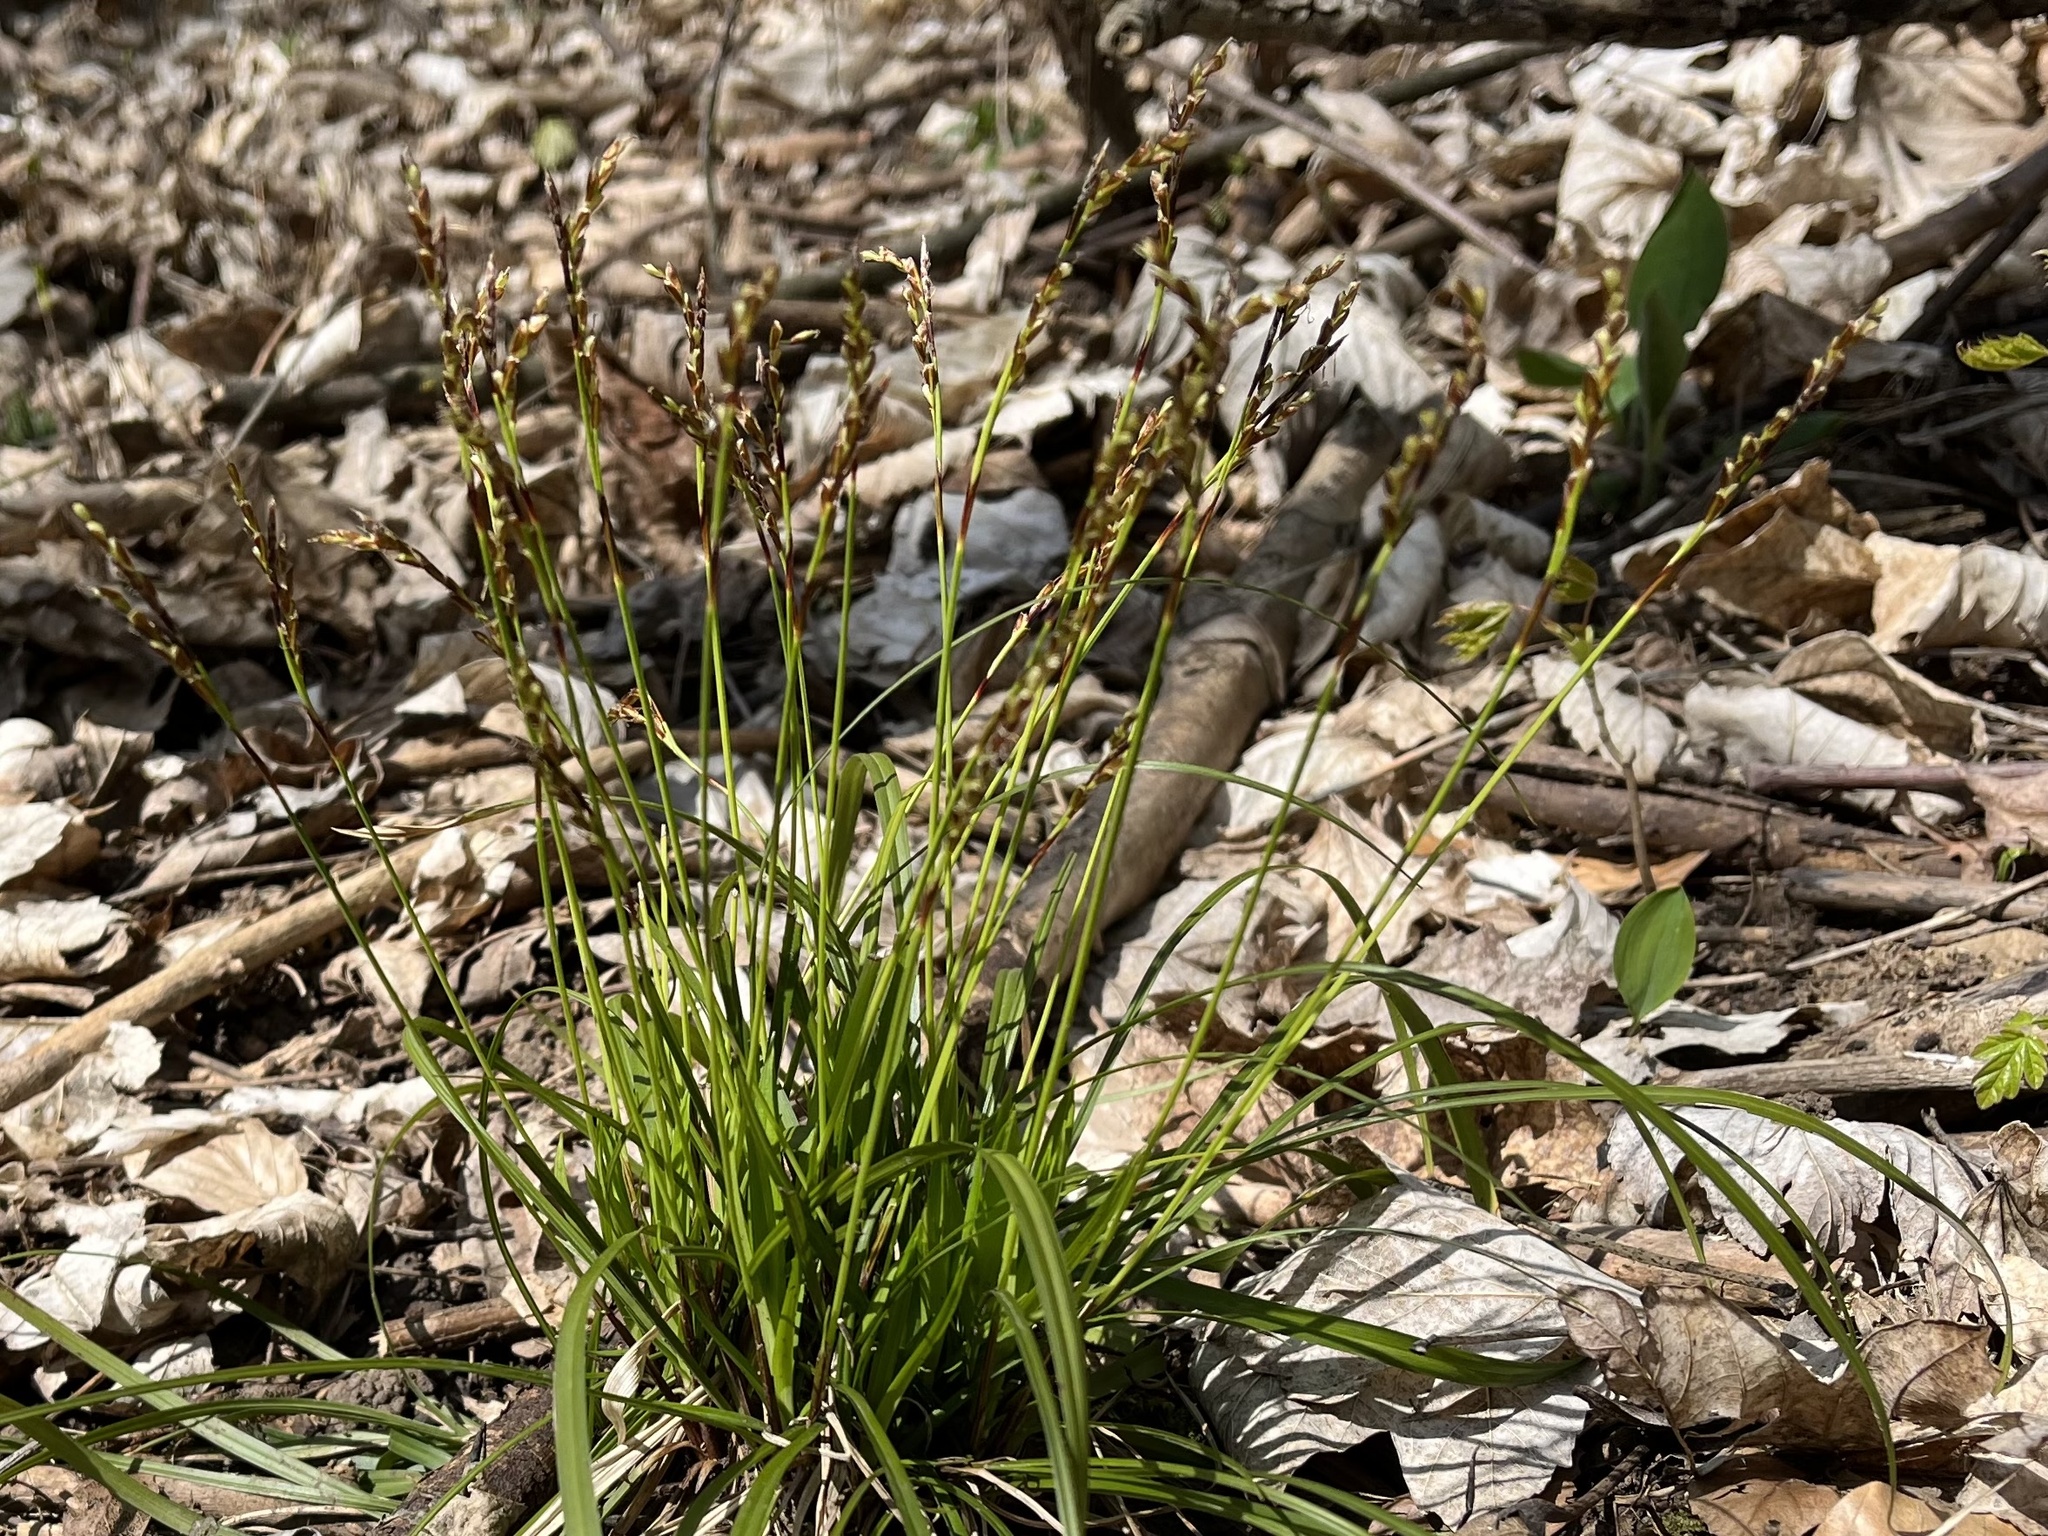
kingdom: Plantae
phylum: Tracheophyta
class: Liliopsida
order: Poales
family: Cyperaceae
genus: Carex
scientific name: Carex digitata
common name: Fingered sedge
